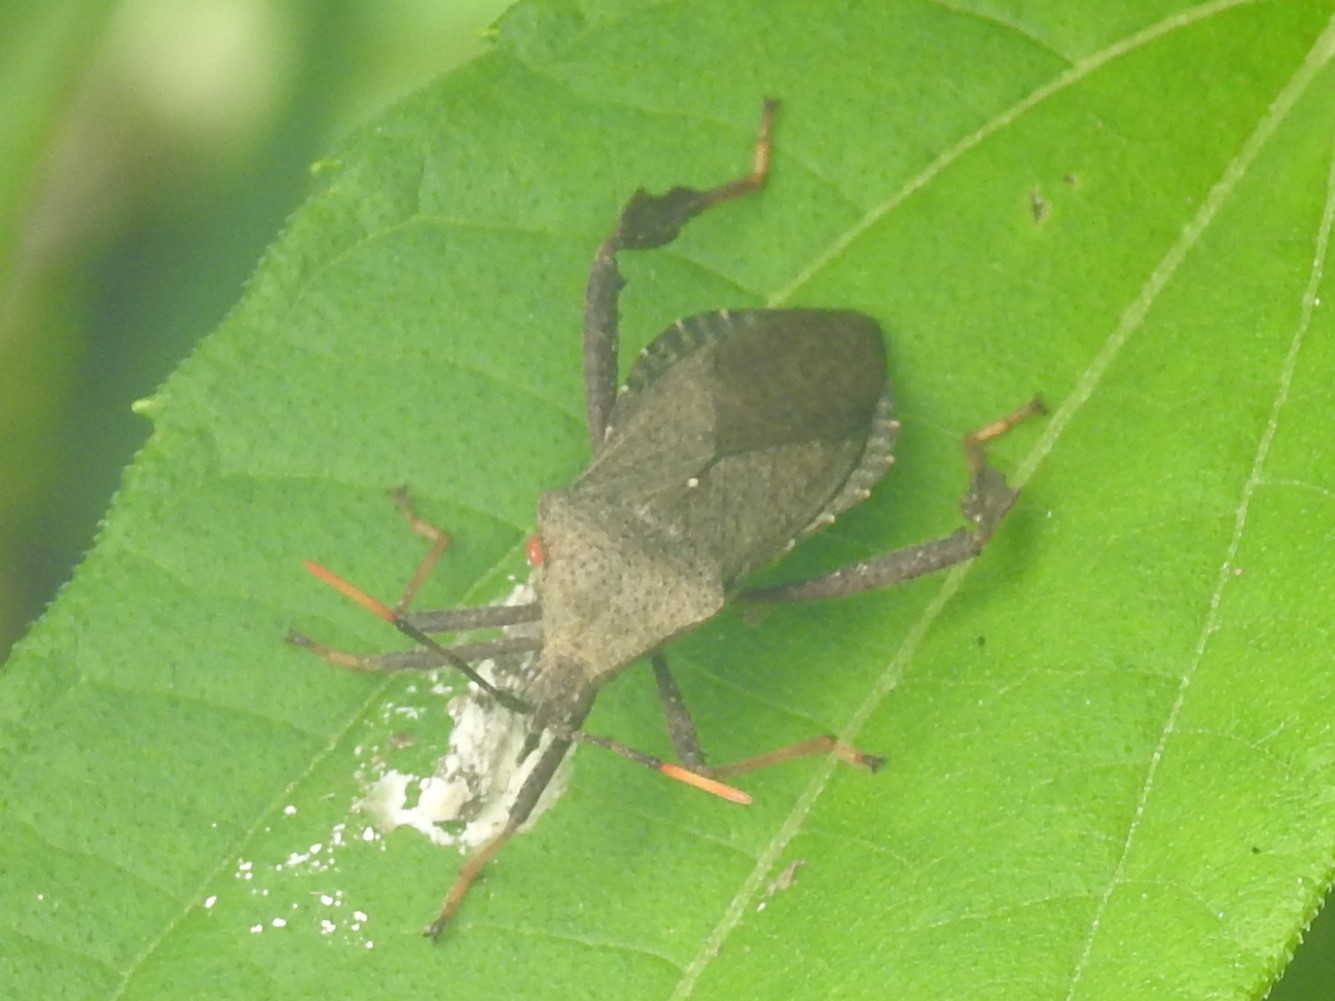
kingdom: Animalia
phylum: Arthropoda
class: Insecta
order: Hemiptera
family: Coreidae
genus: Acanthocephala
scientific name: Acanthocephala terminalis
